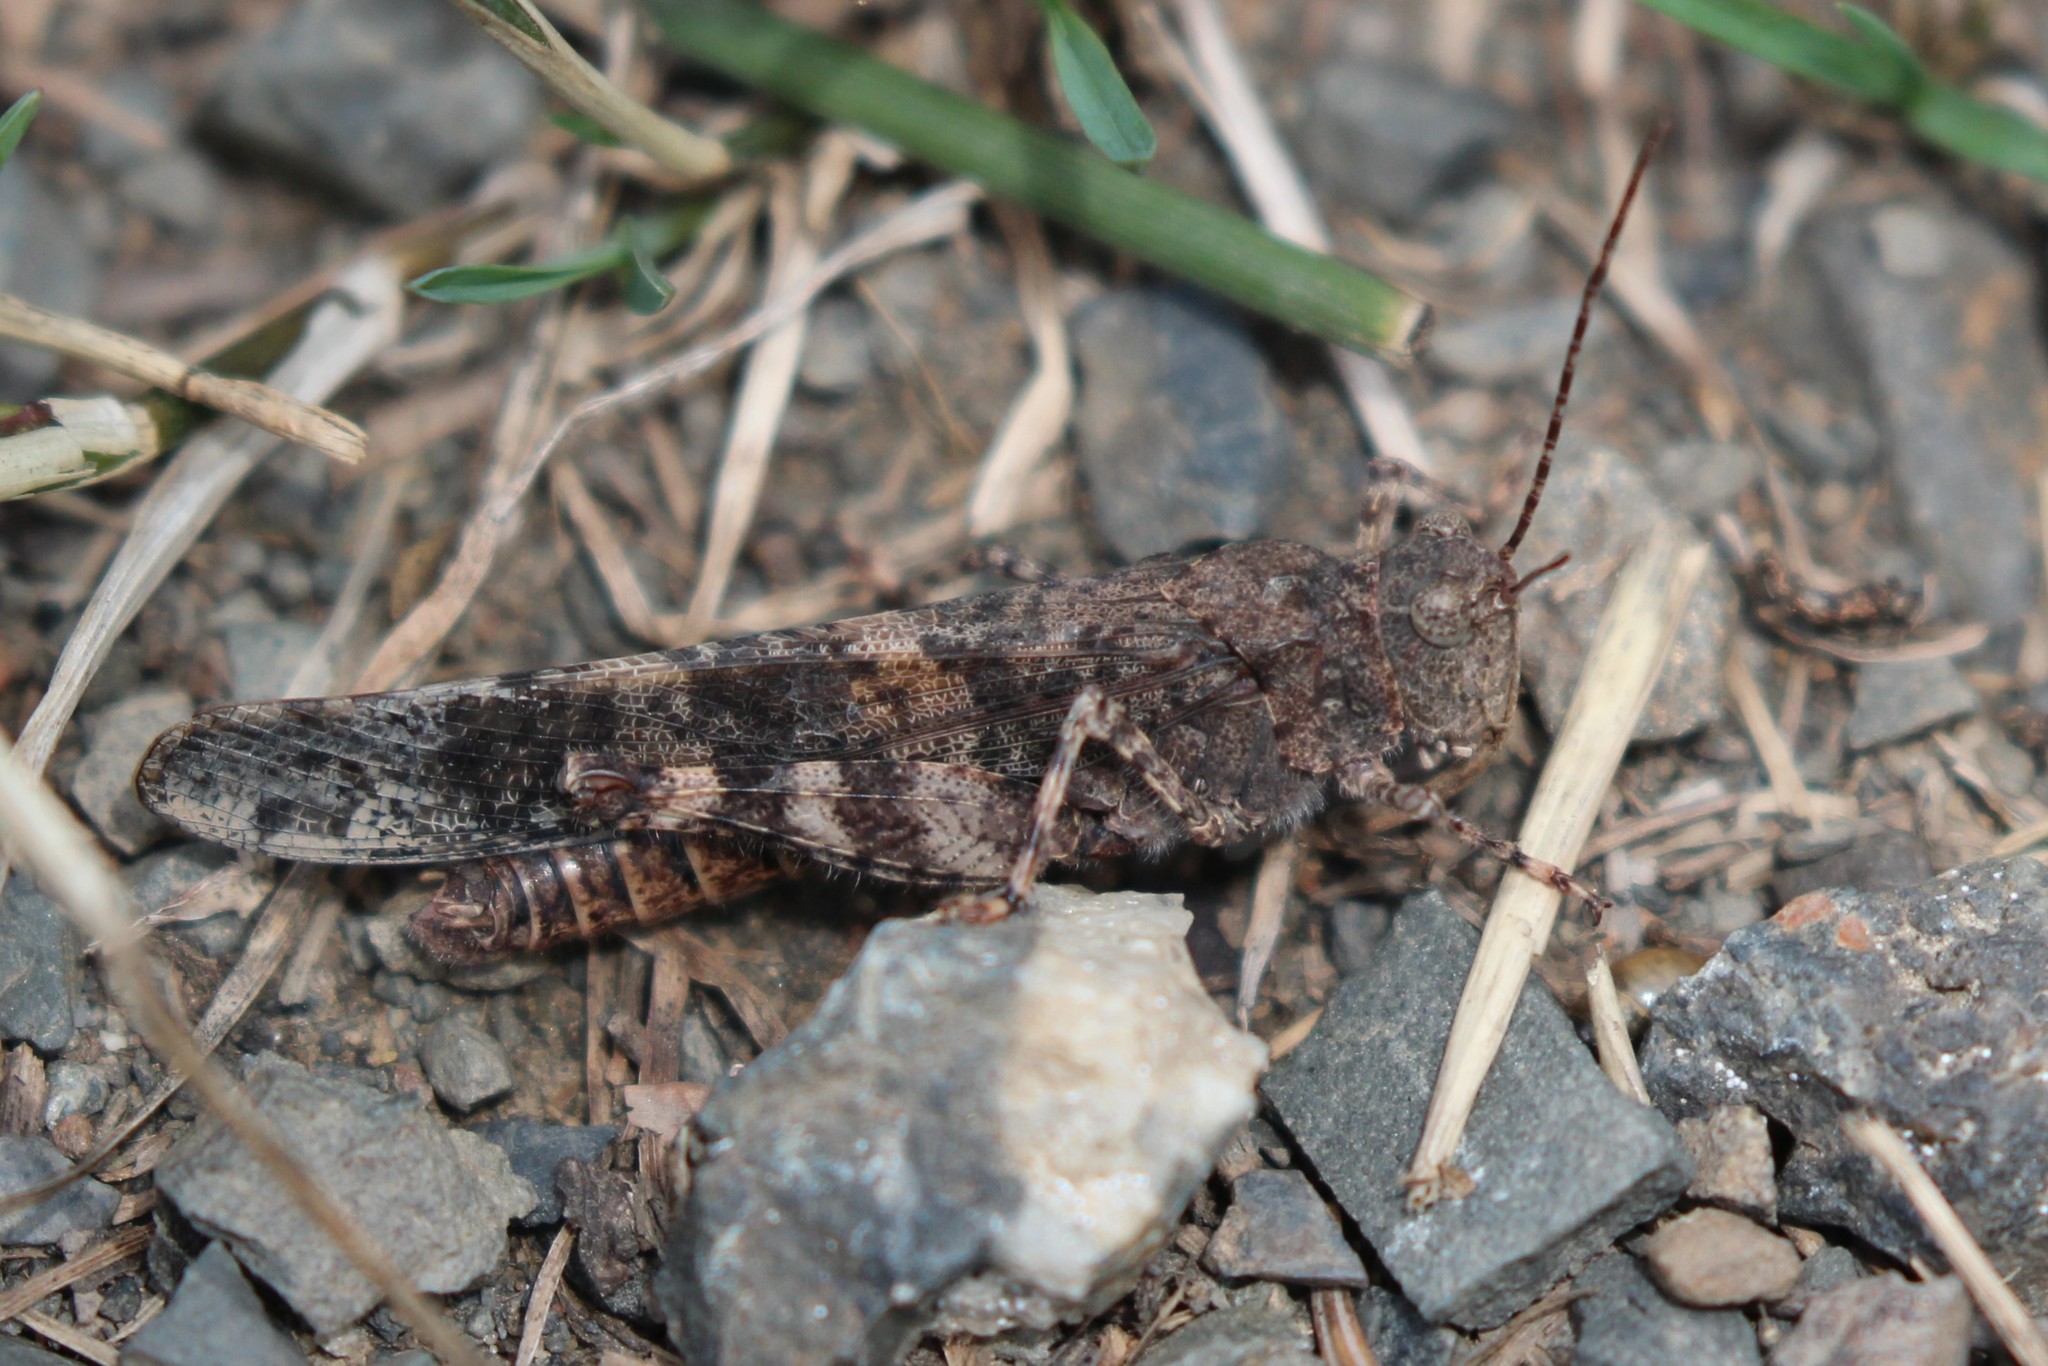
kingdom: Animalia
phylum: Arthropoda
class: Insecta
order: Orthoptera
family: Acrididae
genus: Trimerotropis
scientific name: Trimerotropis verruculata
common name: Crackling forest grasshopper
